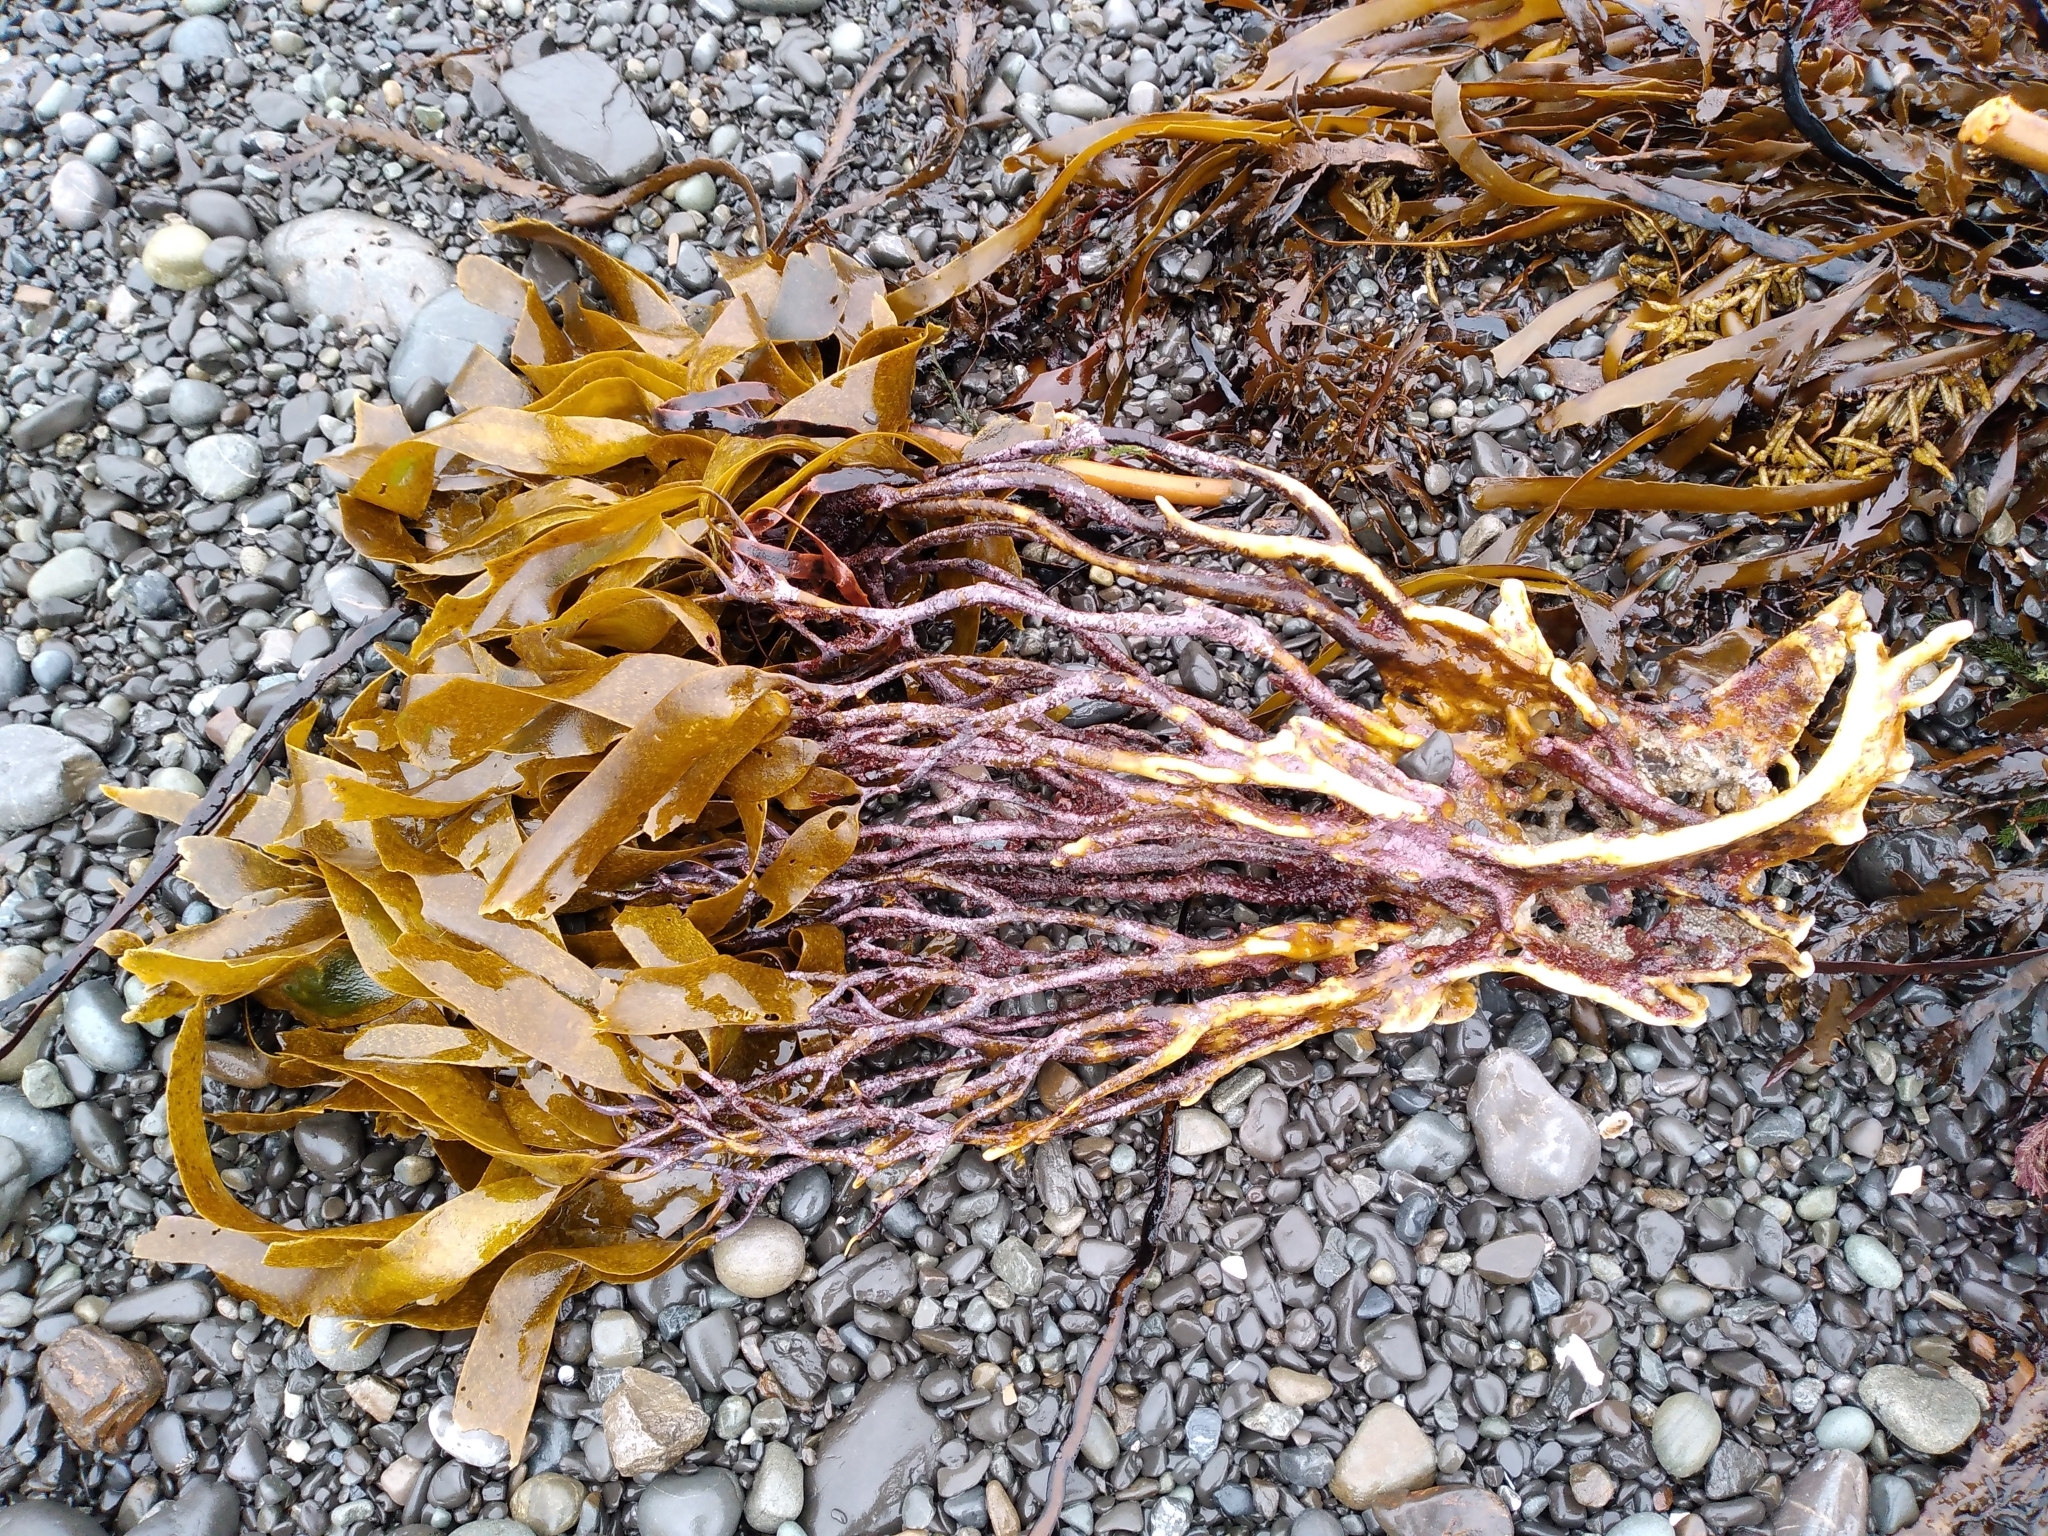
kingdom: Chromista
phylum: Ochrophyta
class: Phaeophyceae
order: Laminariales
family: Lessoniaceae
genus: Lessonia
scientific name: Lessonia variegata
